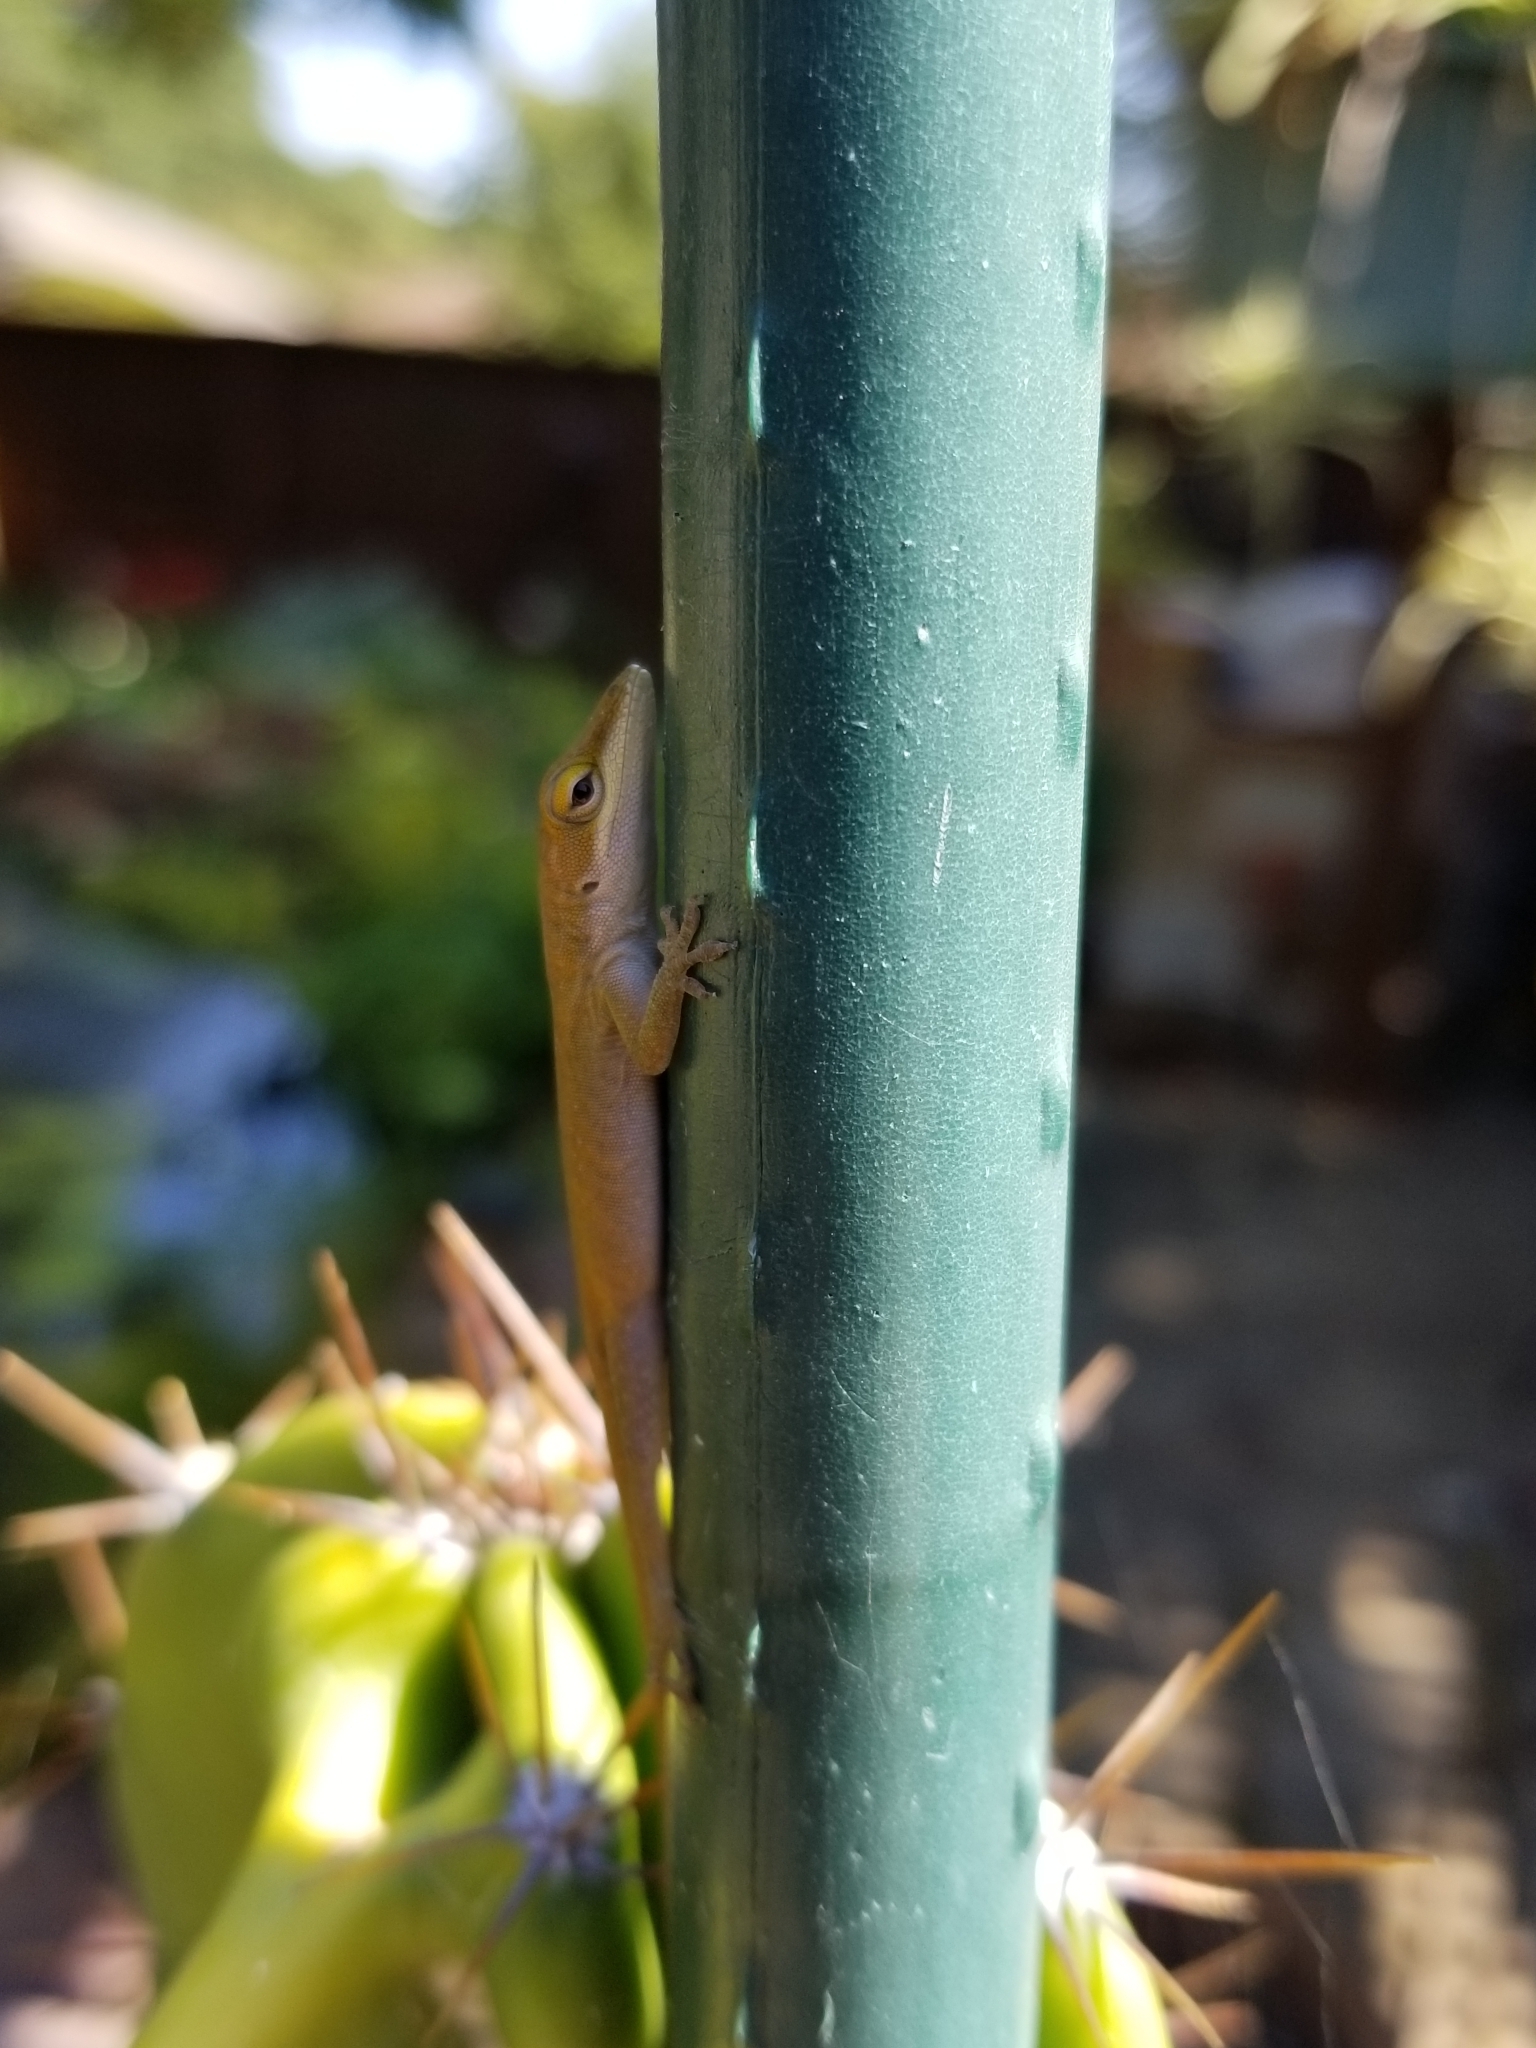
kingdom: Animalia
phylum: Chordata
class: Squamata
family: Dactyloidae
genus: Anolis
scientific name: Anolis carolinensis
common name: Green anole
